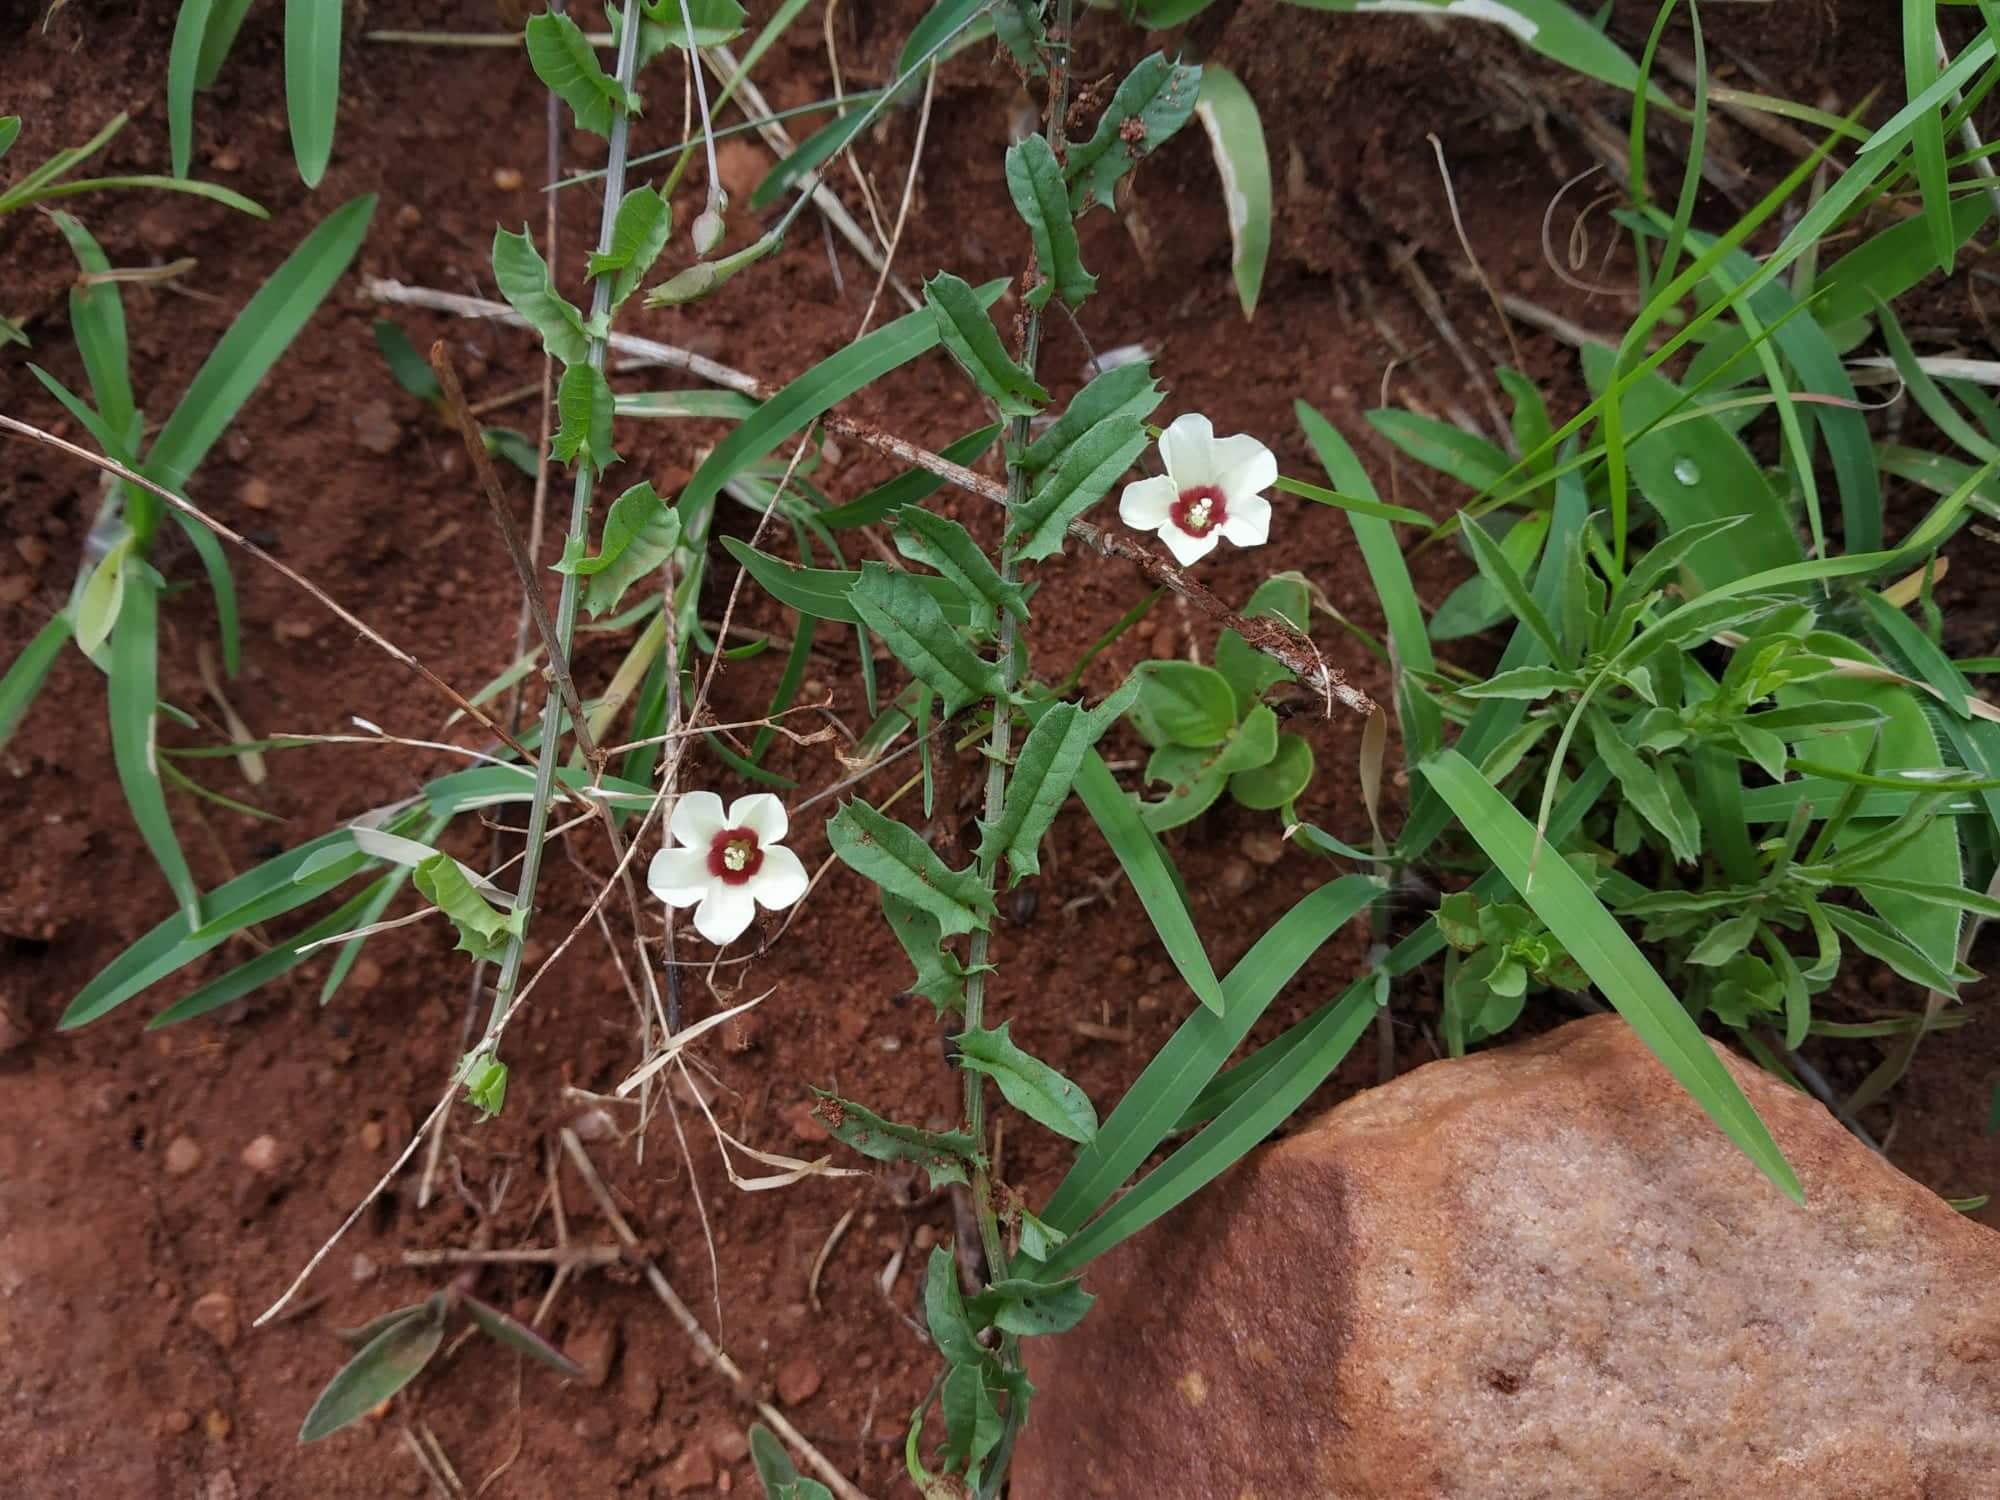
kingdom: Plantae
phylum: Tracheophyta
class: Magnoliopsida
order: Solanales
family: Convolvulaceae
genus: Xenostegia
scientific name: Xenostegia tridentata
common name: African morningvine
